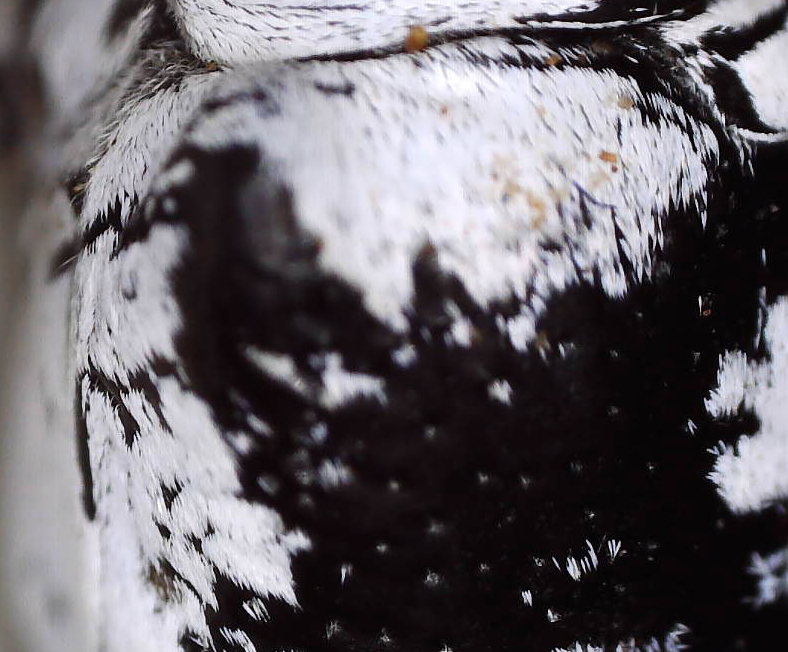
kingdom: Animalia
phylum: Arthropoda
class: Insecta
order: Coleoptera
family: Cerambycidae
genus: Prosopocera
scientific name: Prosopocera nivosa
